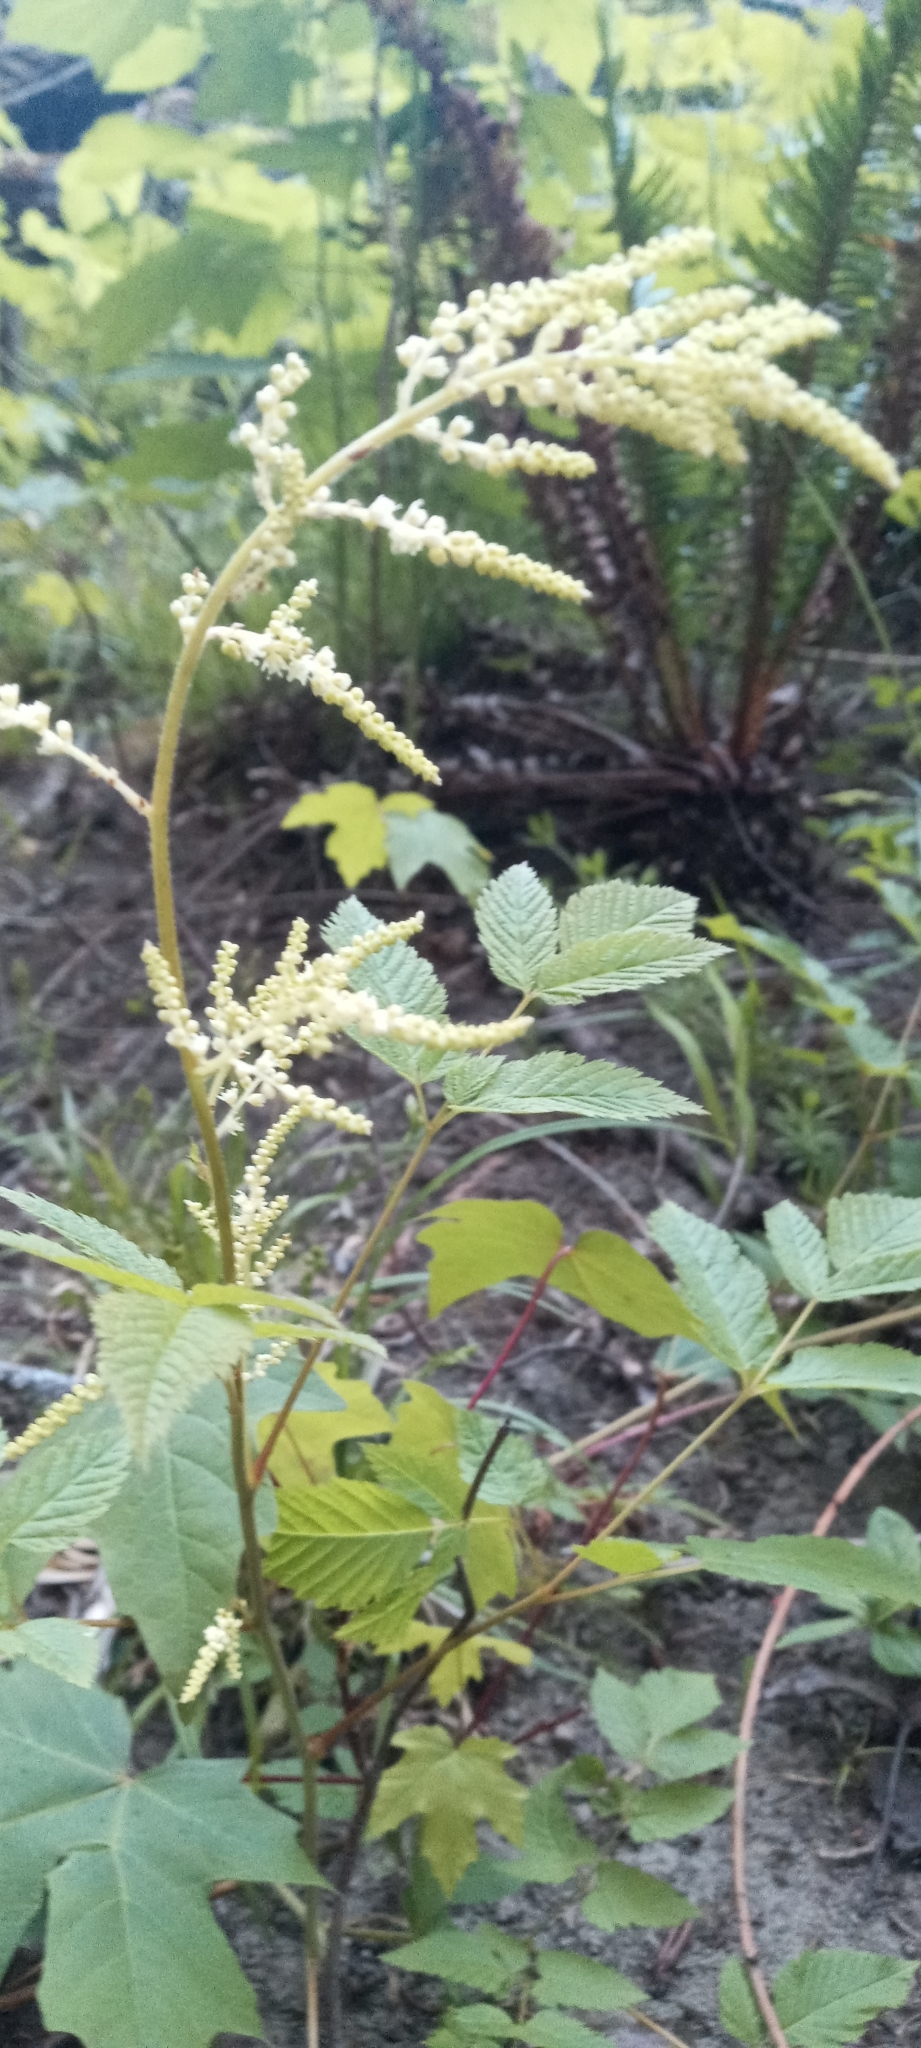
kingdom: Plantae
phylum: Tracheophyta
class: Magnoliopsida
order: Rosales
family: Rosaceae
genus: Aruncus
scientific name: Aruncus dioicus
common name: Buck's-beard
